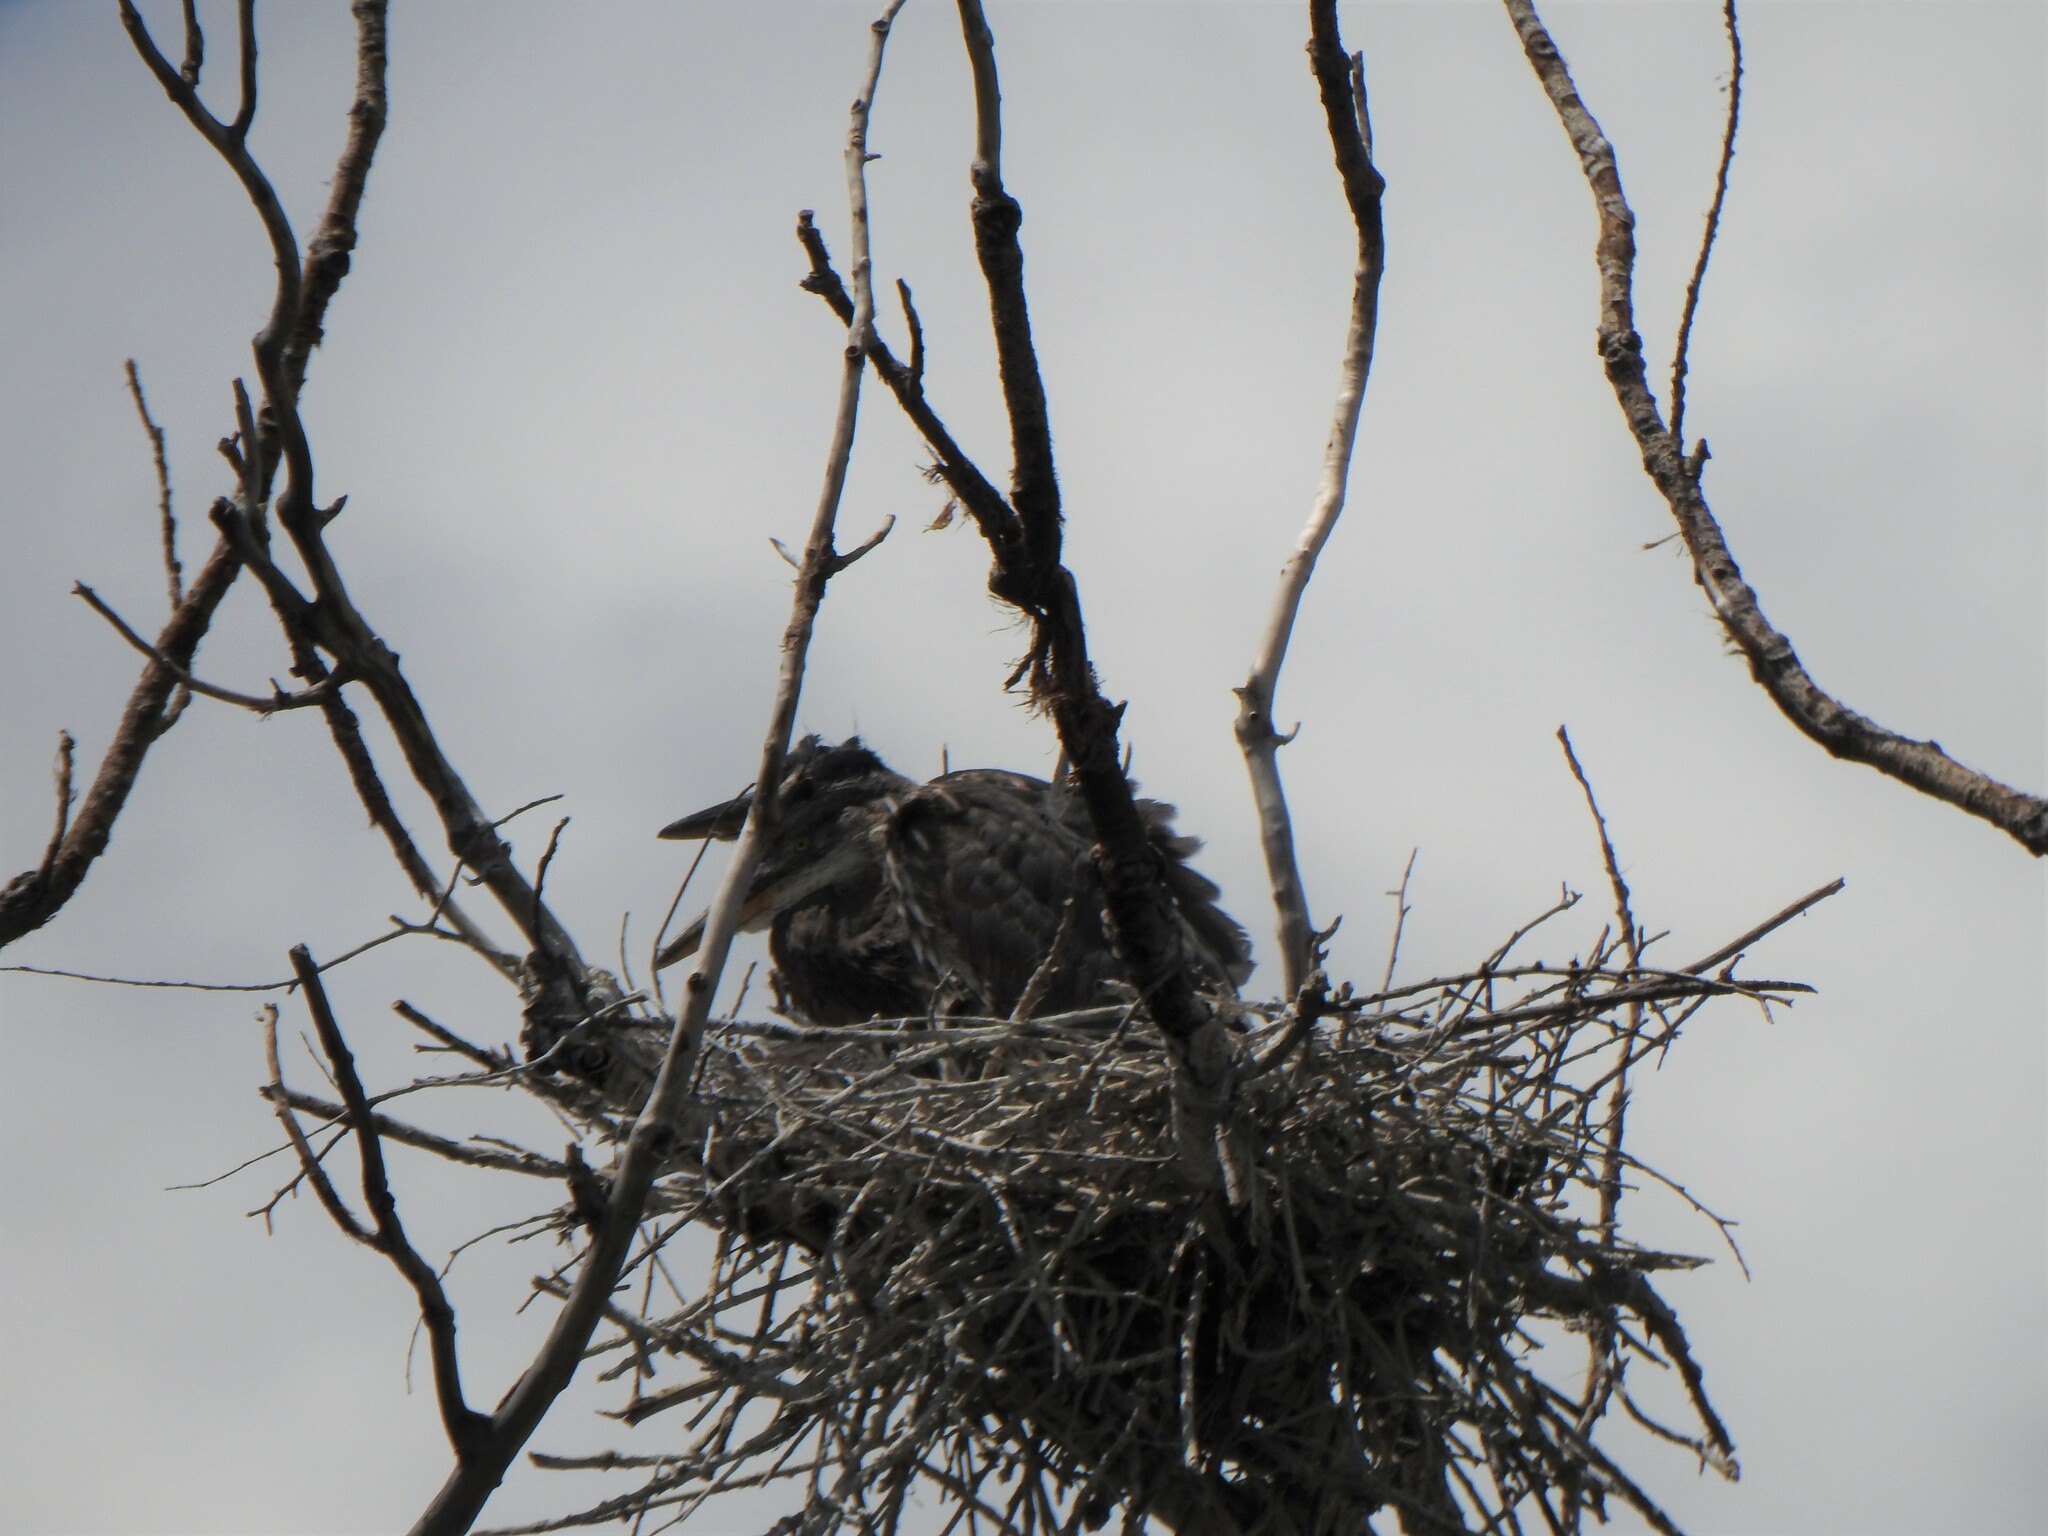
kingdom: Animalia
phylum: Chordata
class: Aves
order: Pelecaniformes
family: Ardeidae
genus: Ardea
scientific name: Ardea herodias
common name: Great blue heron
